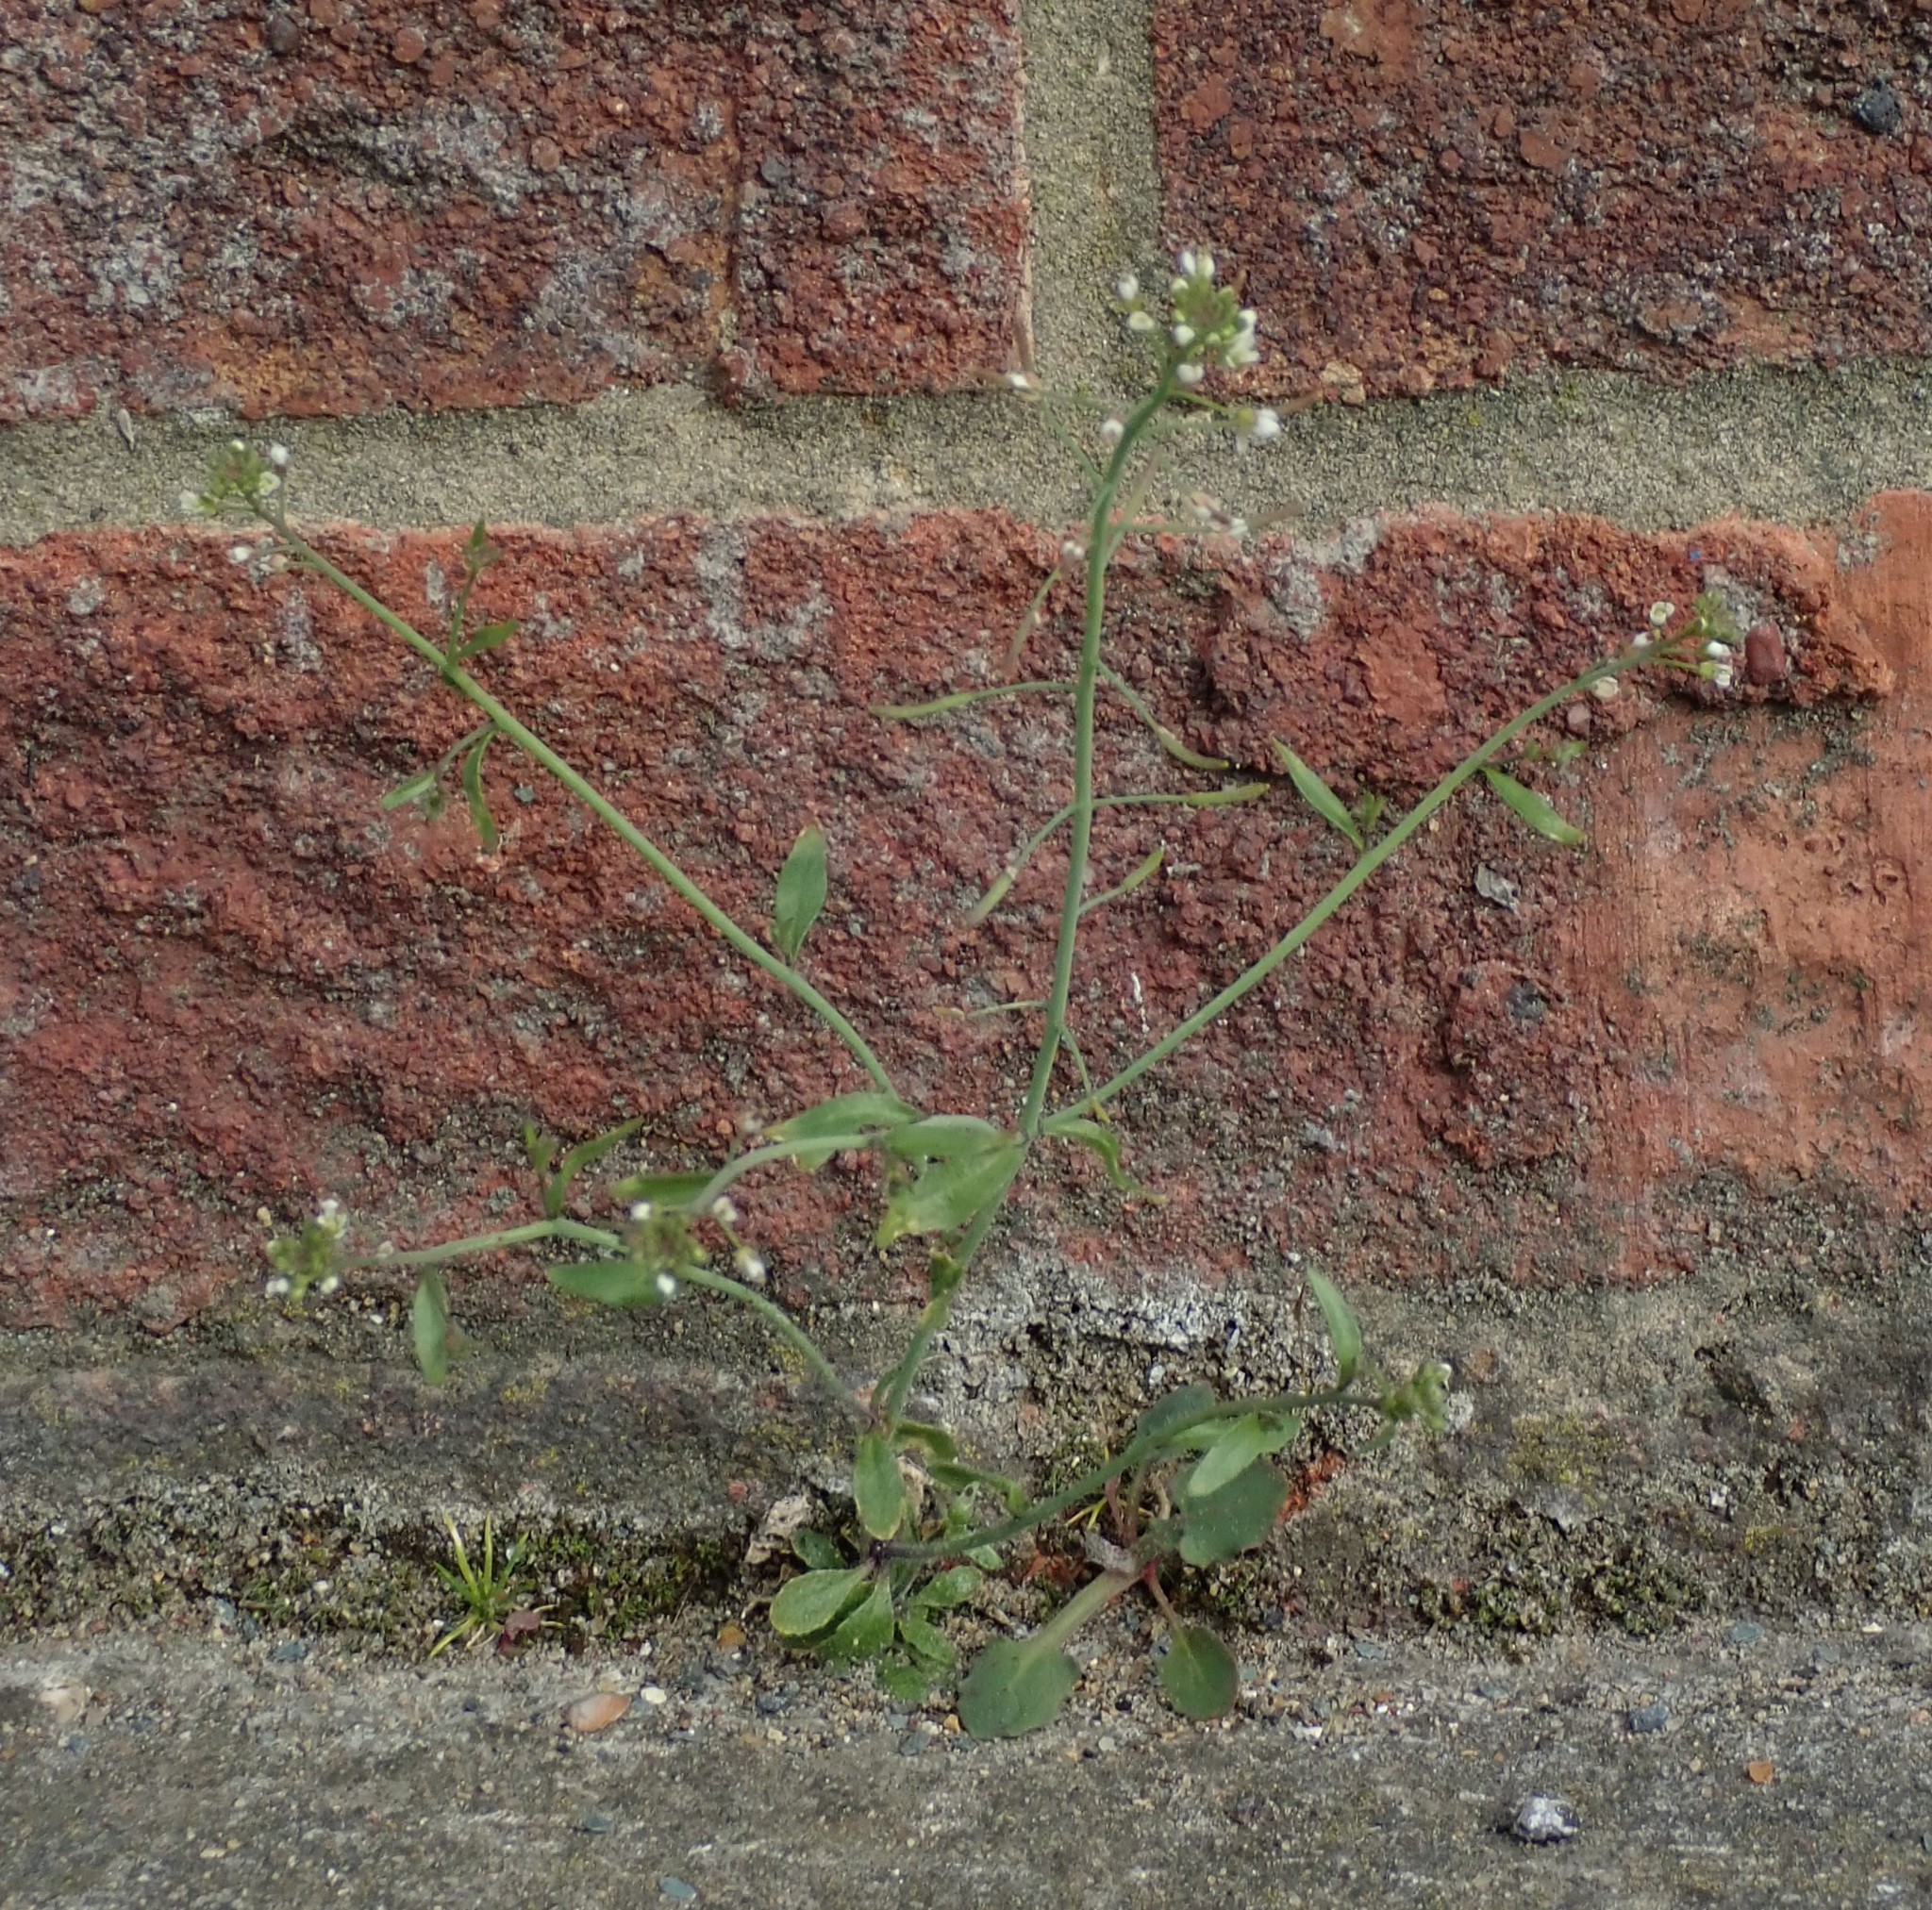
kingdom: Plantae
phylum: Tracheophyta
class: Magnoliopsida
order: Brassicales
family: Brassicaceae
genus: Arabidopsis
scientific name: Arabidopsis thaliana
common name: Thale cress
